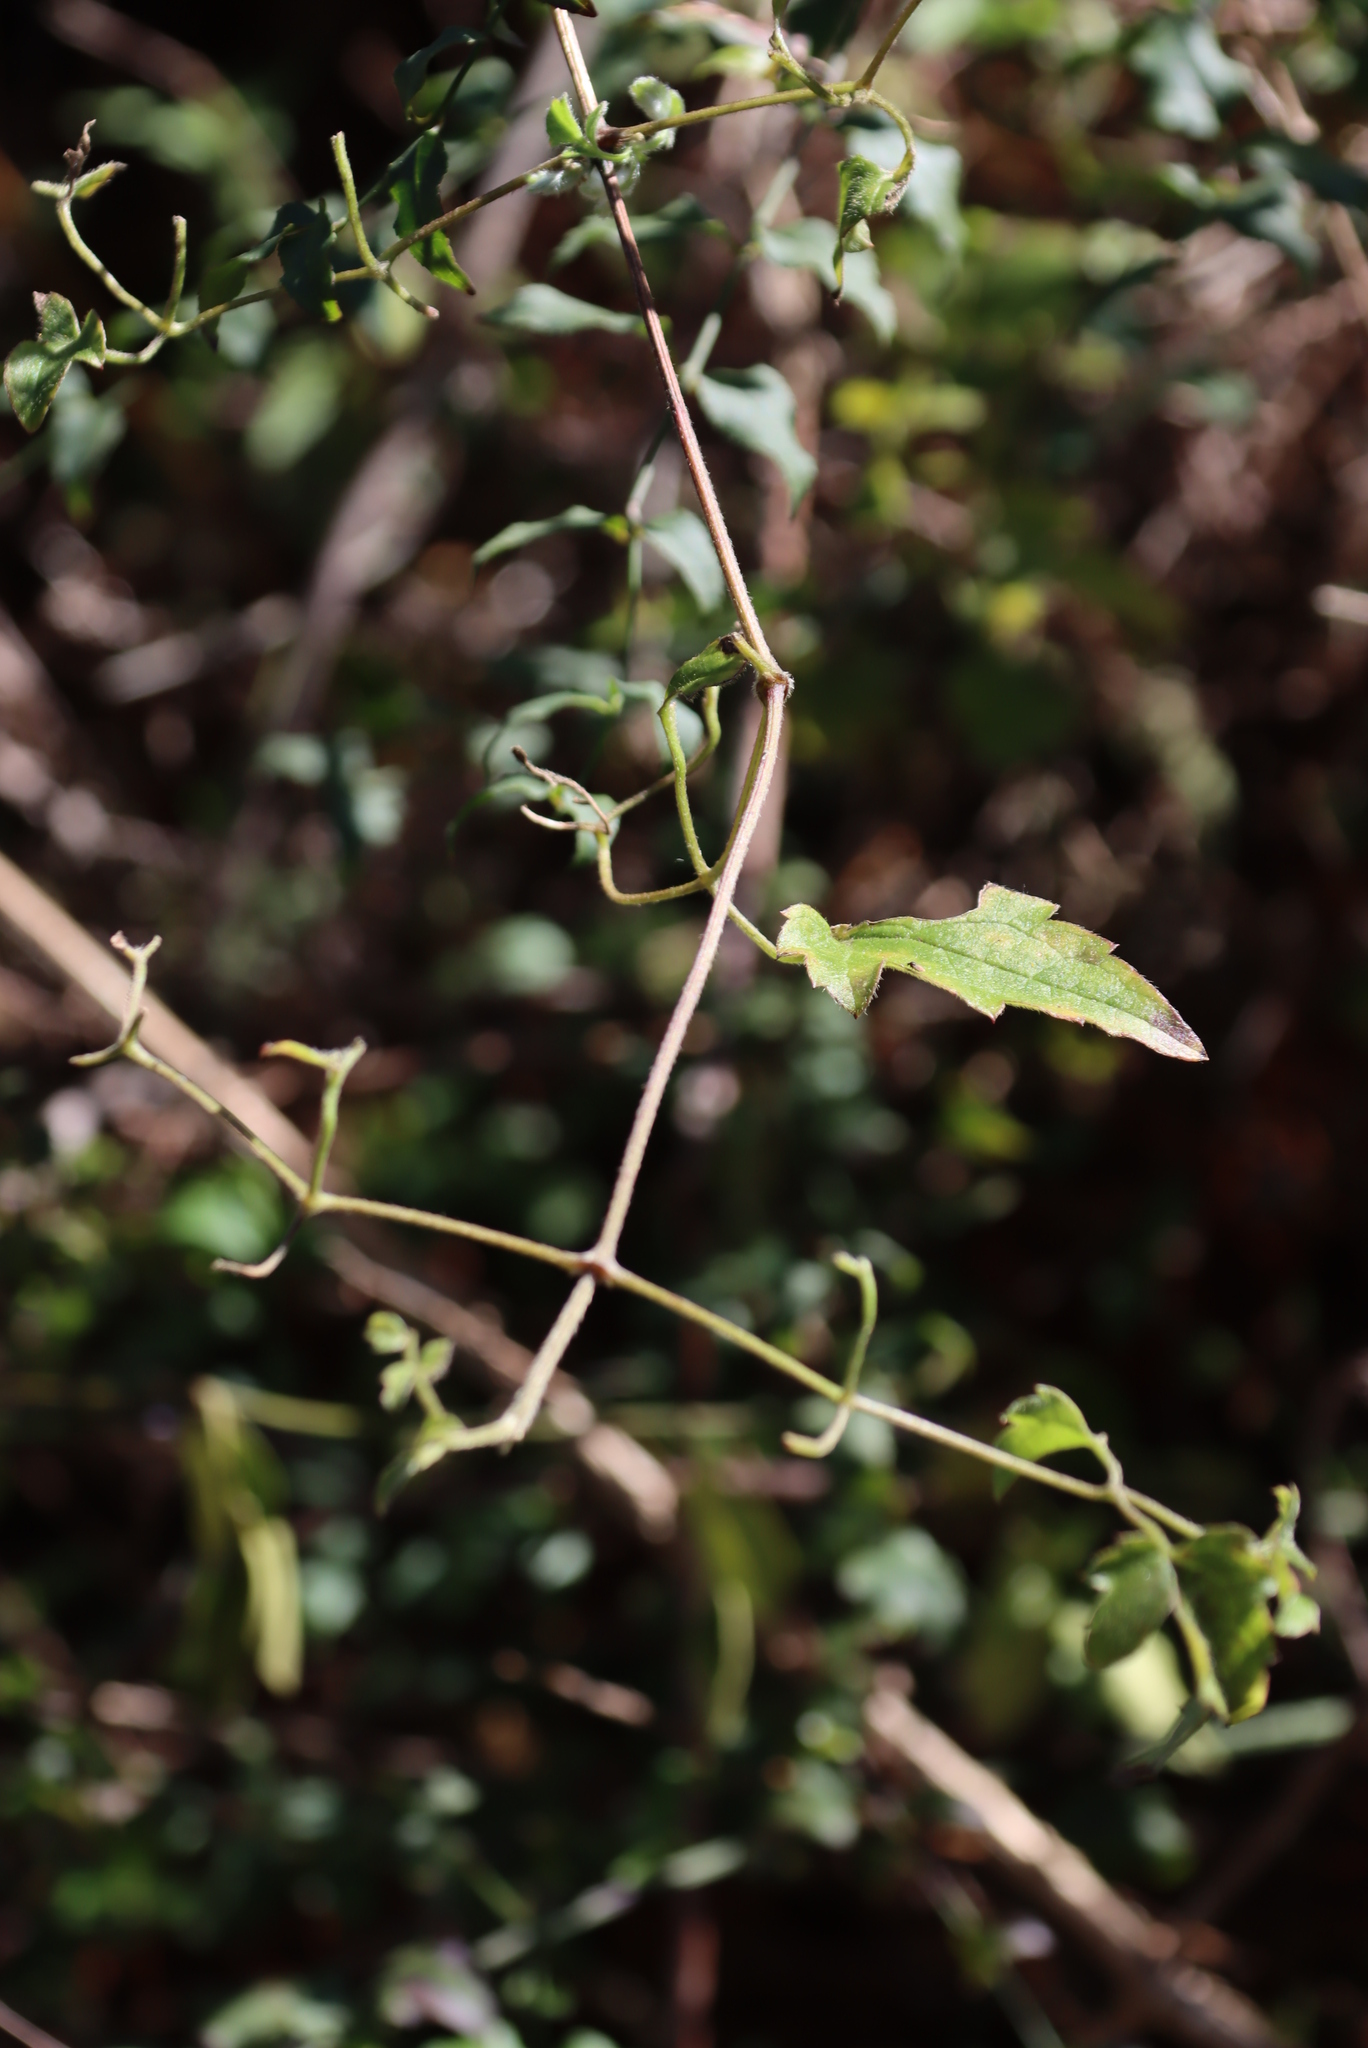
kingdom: Plantae
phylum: Tracheophyta
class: Magnoliopsida
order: Ranunculales
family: Ranunculaceae
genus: Clematis
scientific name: Clematis brachiata
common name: Traveler's-joy
